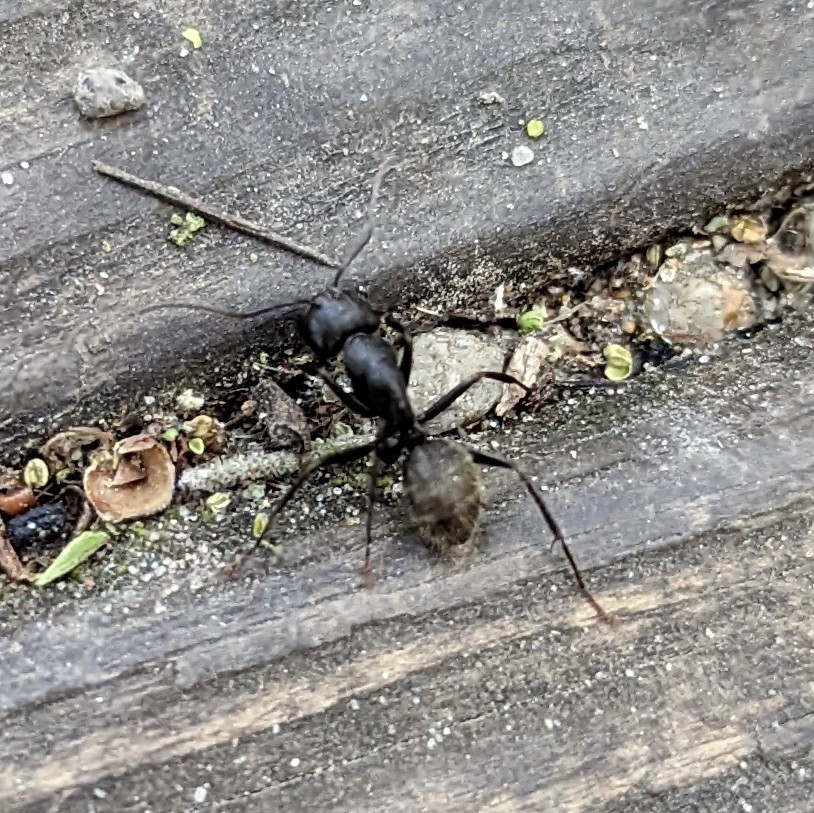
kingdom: Animalia
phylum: Arthropoda
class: Insecta
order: Hymenoptera
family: Formicidae
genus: Camponotus
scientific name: Camponotus pennsylvanicus
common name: Black carpenter ant
